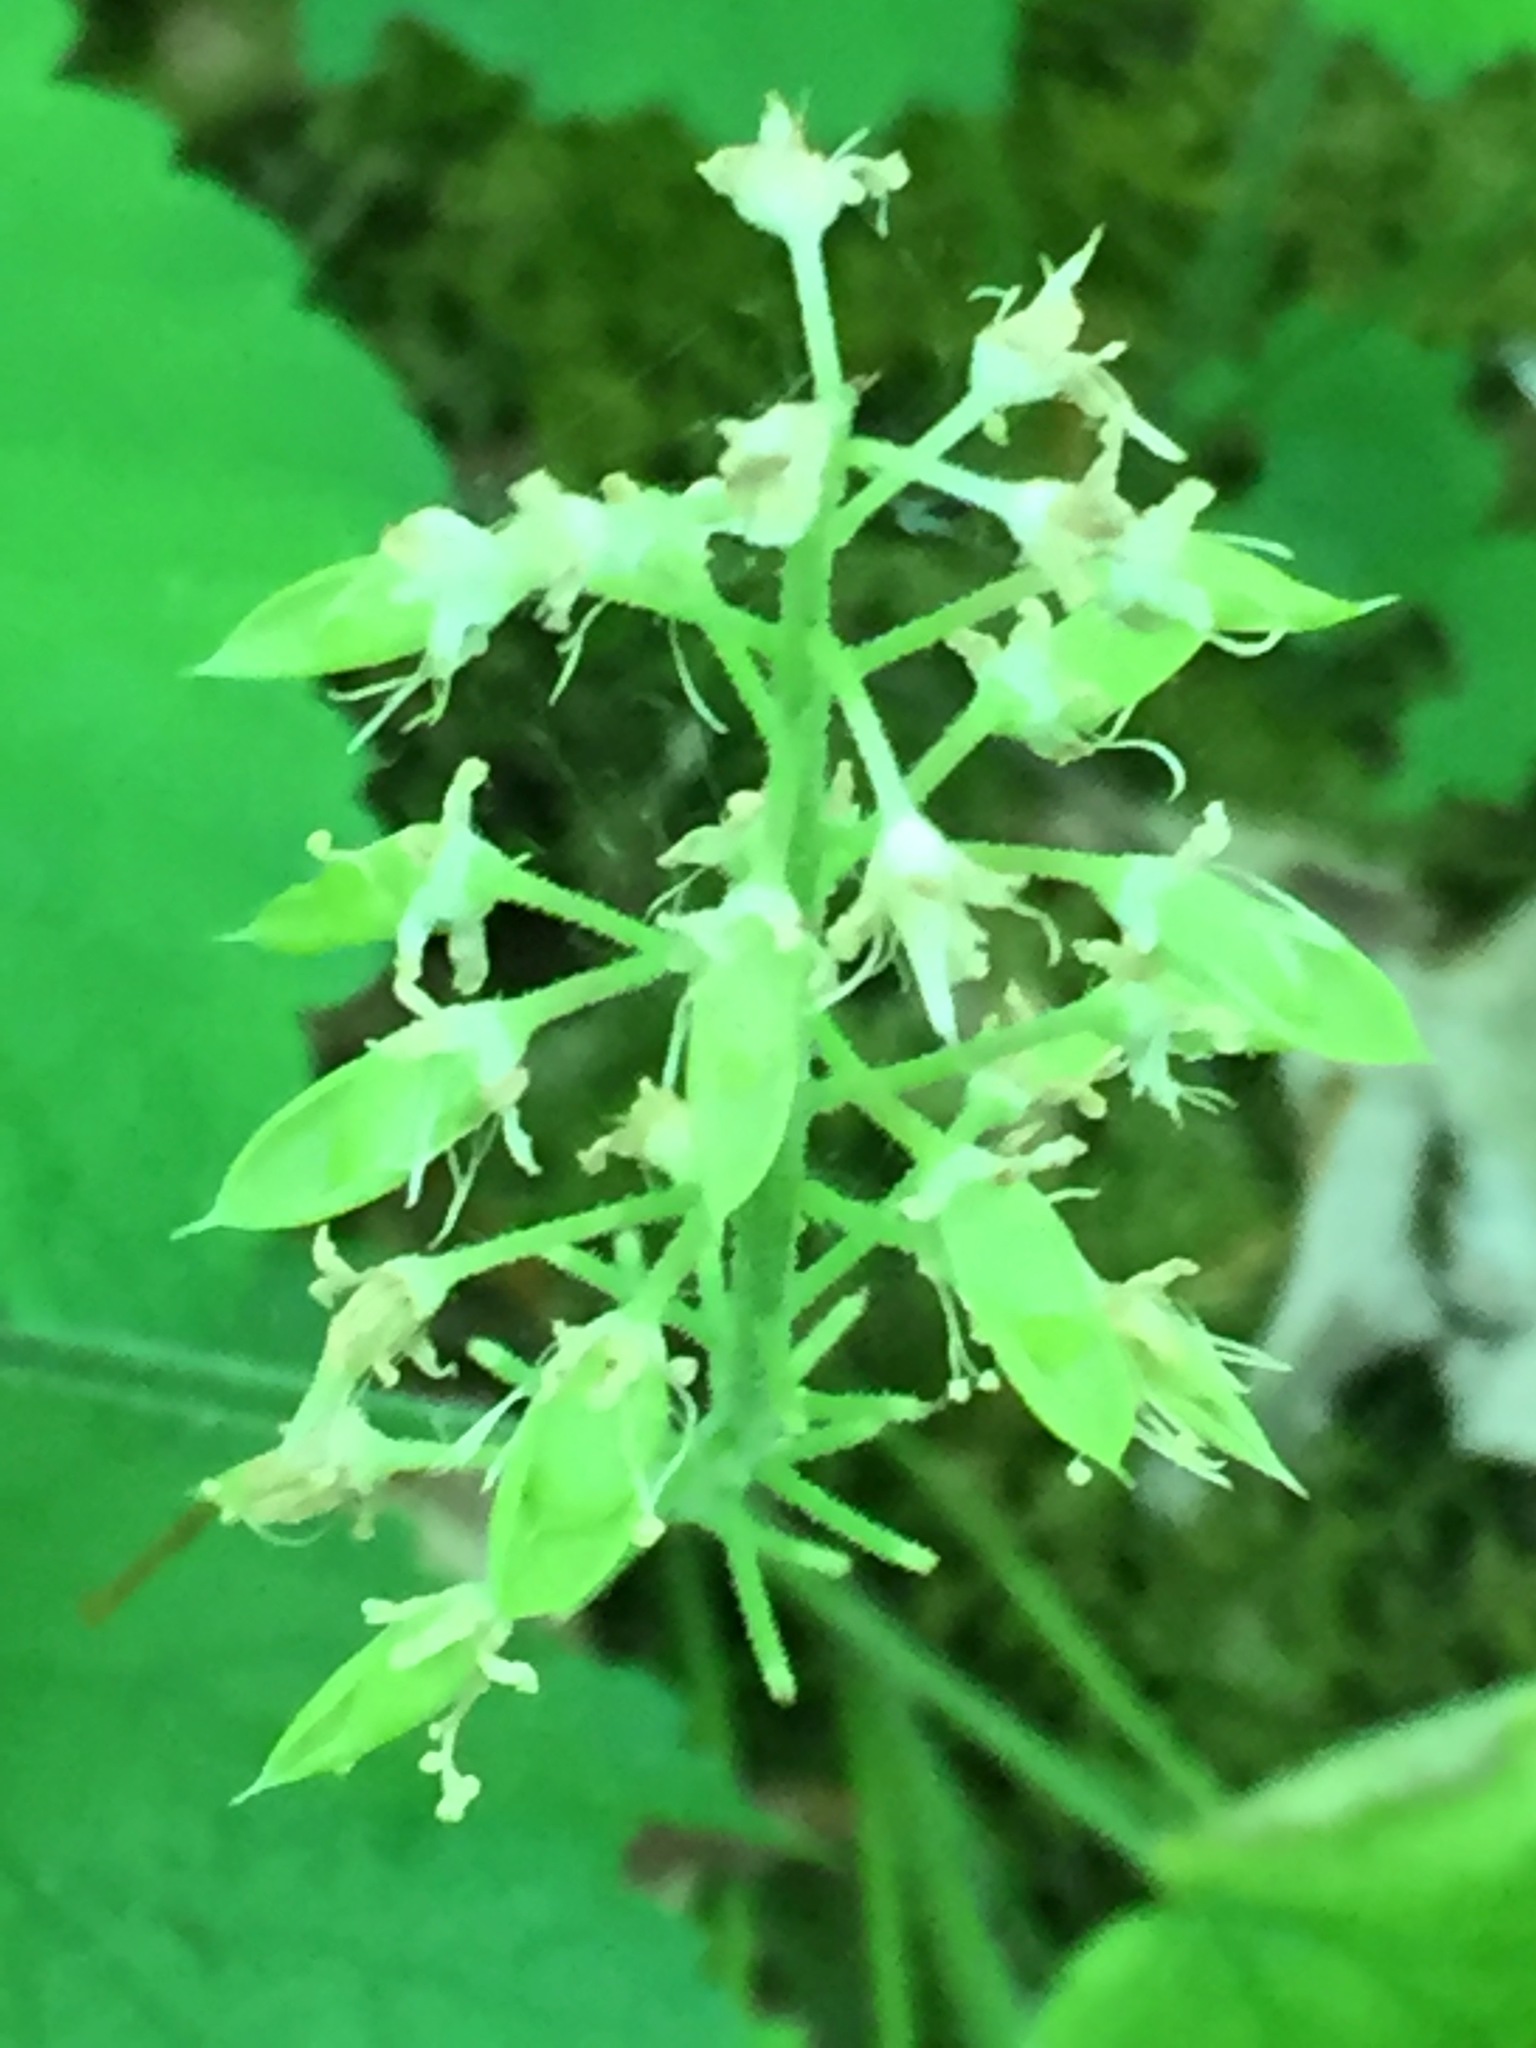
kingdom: Plantae
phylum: Tracheophyta
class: Magnoliopsida
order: Saxifragales
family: Saxifragaceae
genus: Tiarella
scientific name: Tiarella stolonifera
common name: Stoloniferous foamflower
